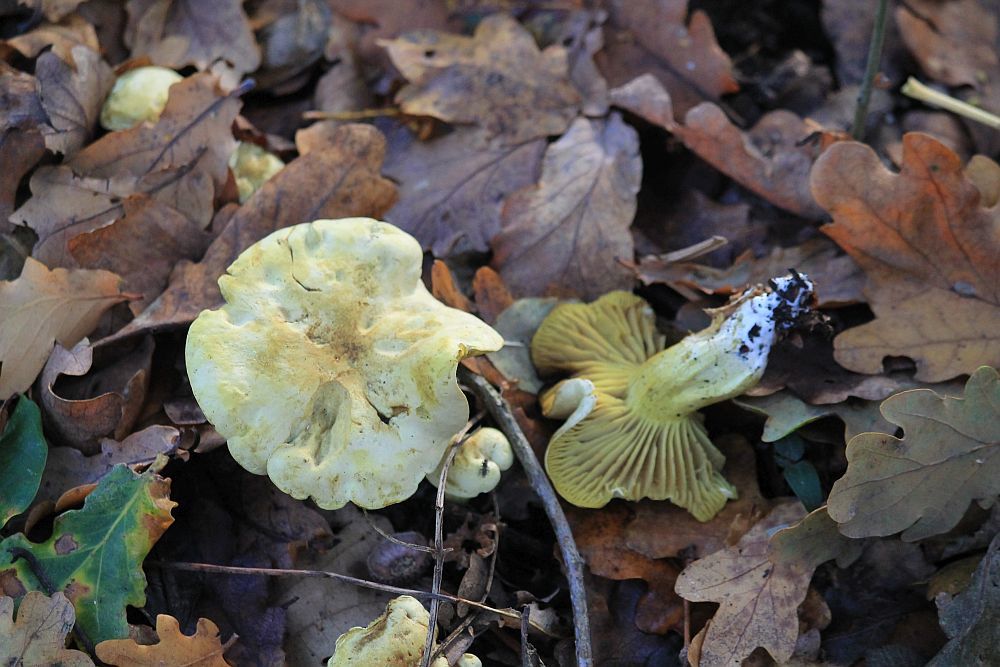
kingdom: Fungi
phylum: Basidiomycota
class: Agaricomycetes
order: Agaricales
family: Tricholomataceae
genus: Tricholoma
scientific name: Tricholoma sulphureum
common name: Stinky knight
